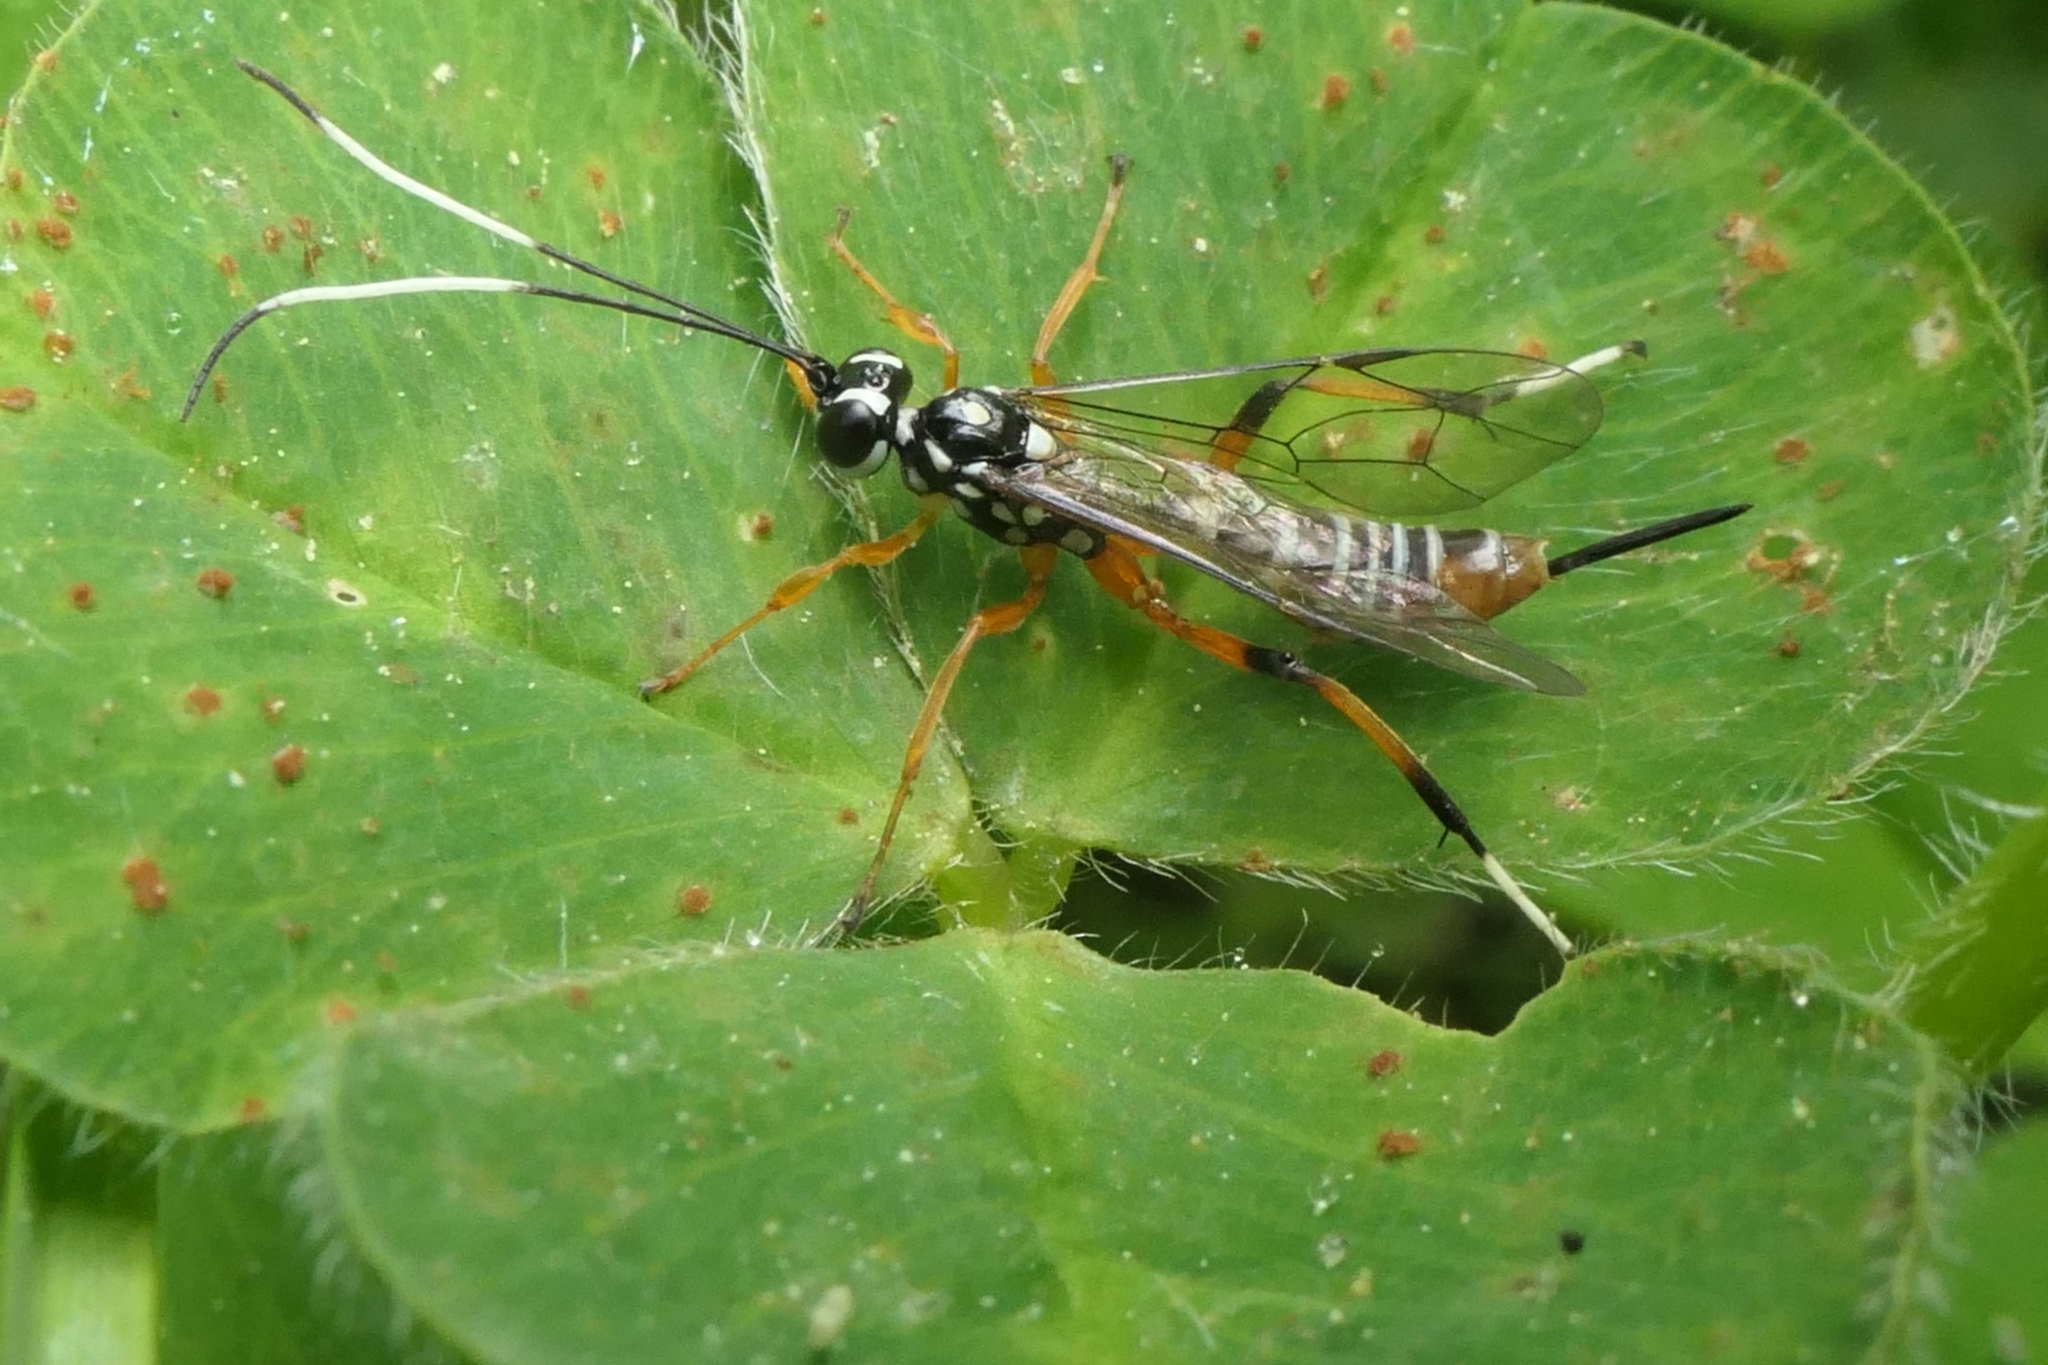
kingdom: Animalia
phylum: Arthropoda
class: Insecta
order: Hymenoptera
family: Ichneumonidae
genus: Xanthocryptus
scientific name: Xanthocryptus novozealandicus
